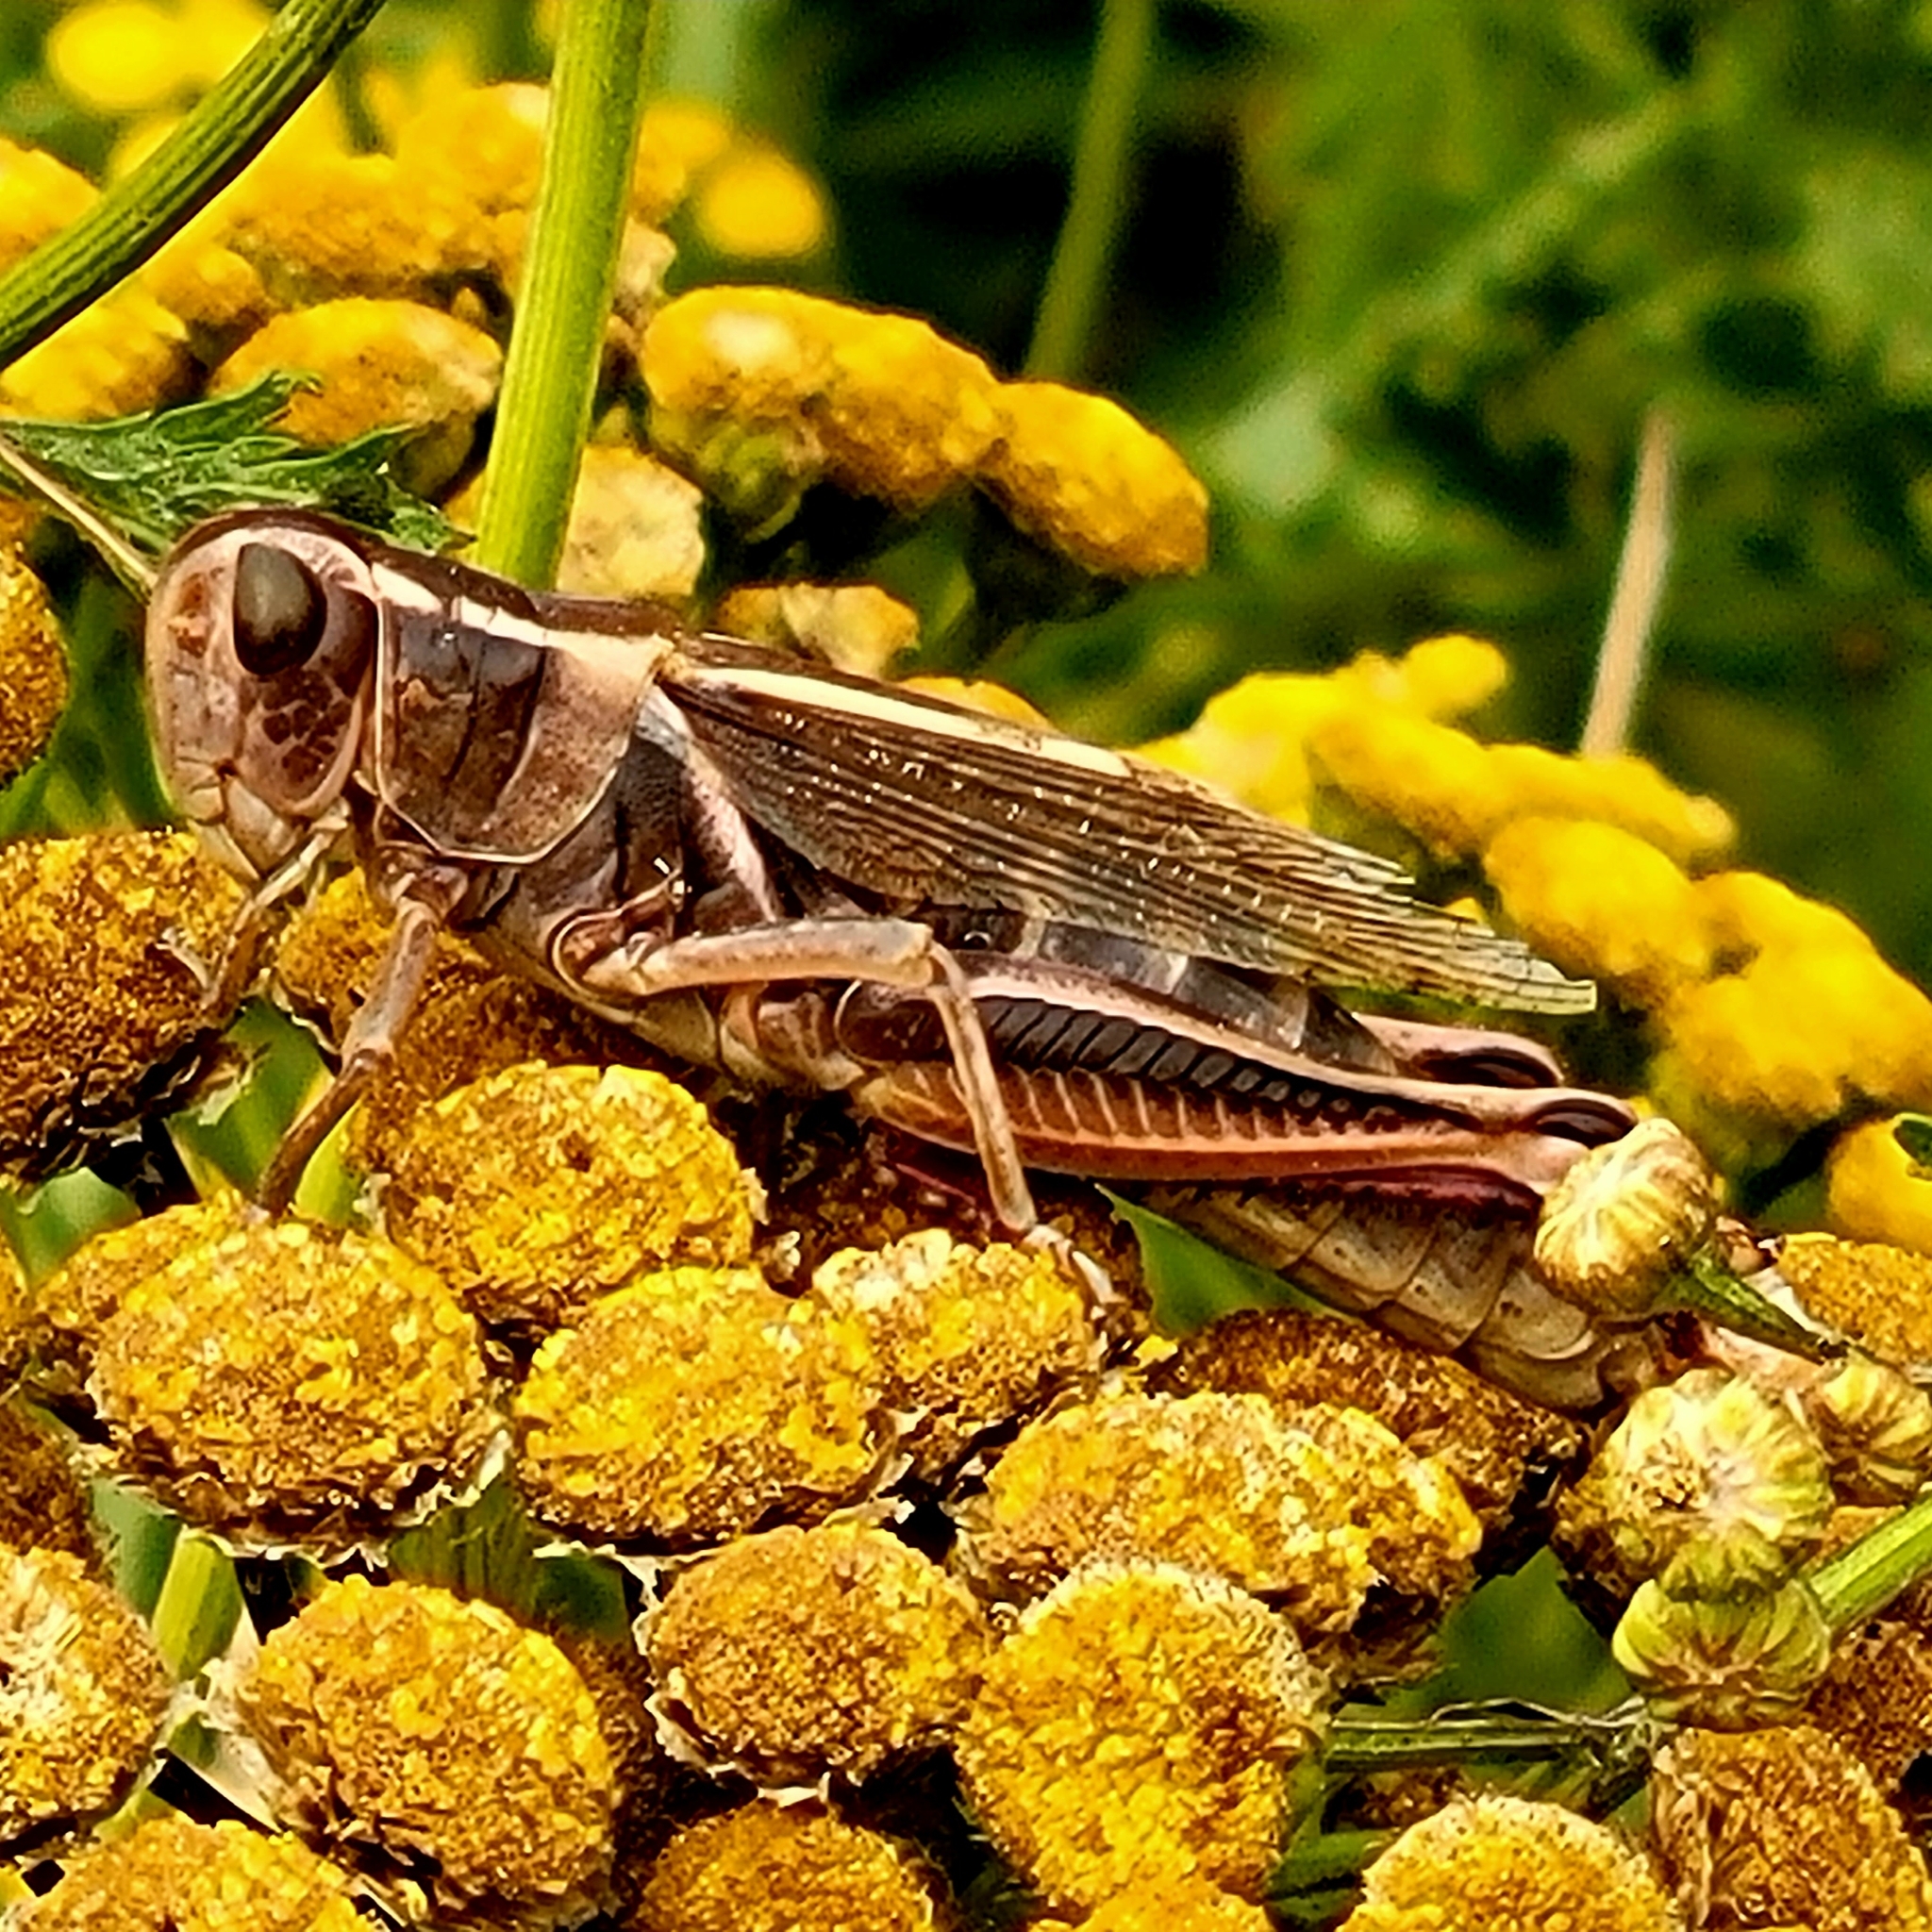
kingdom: Animalia
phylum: Arthropoda
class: Insecta
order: Orthoptera
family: Acrididae
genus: Melanoplus
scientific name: Melanoplus bivittatus
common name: Two-striped grasshopper
